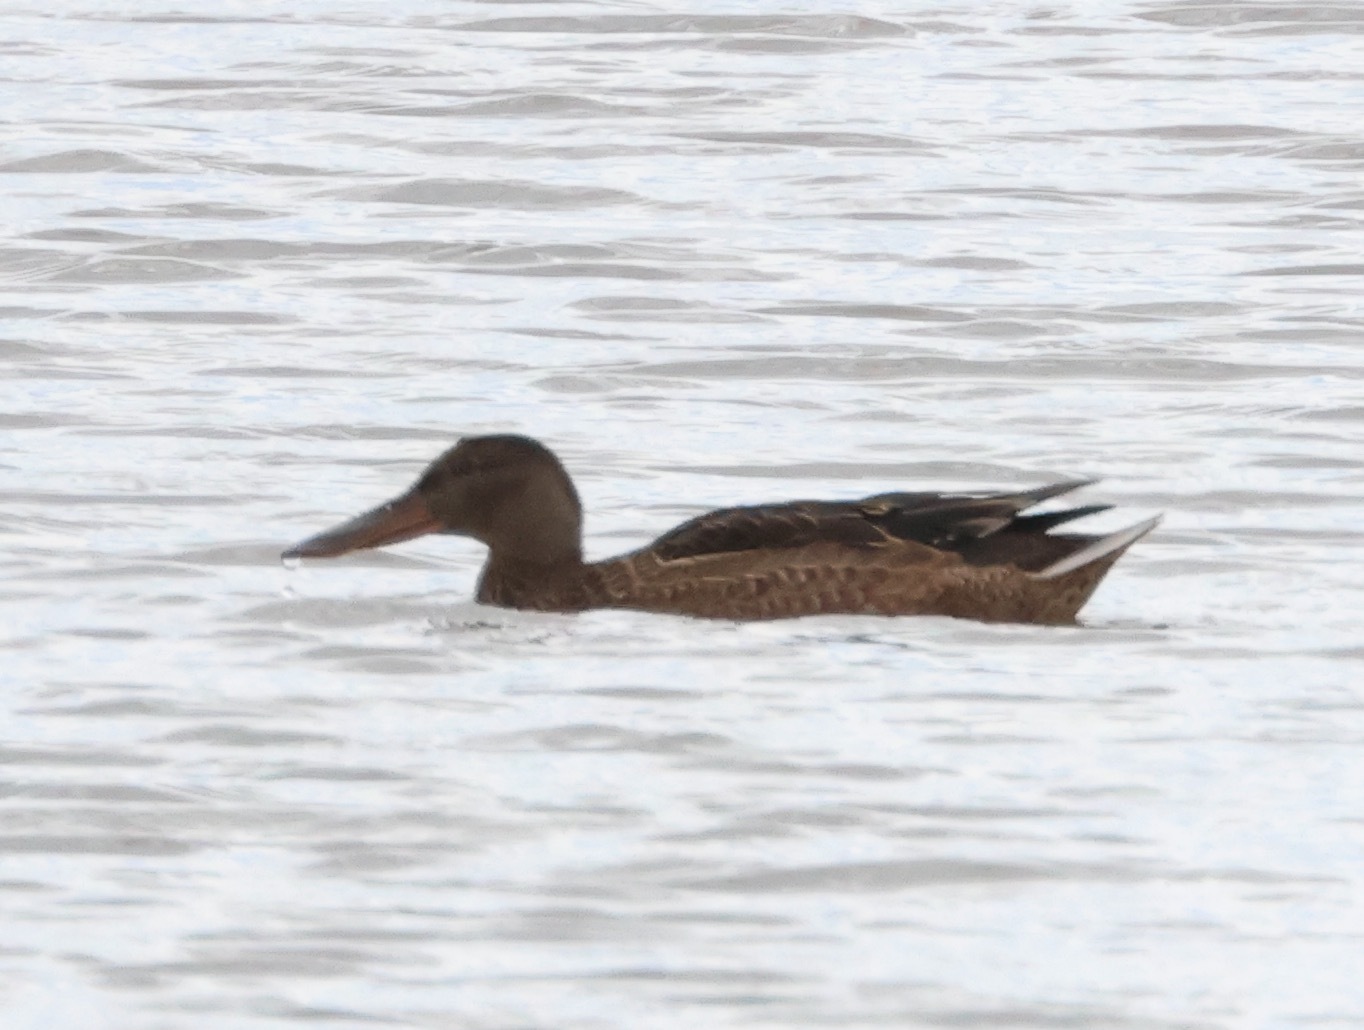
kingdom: Animalia
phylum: Chordata
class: Aves
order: Anseriformes
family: Anatidae
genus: Spatula
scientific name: Spatula clypeata
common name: Northern shoveler
